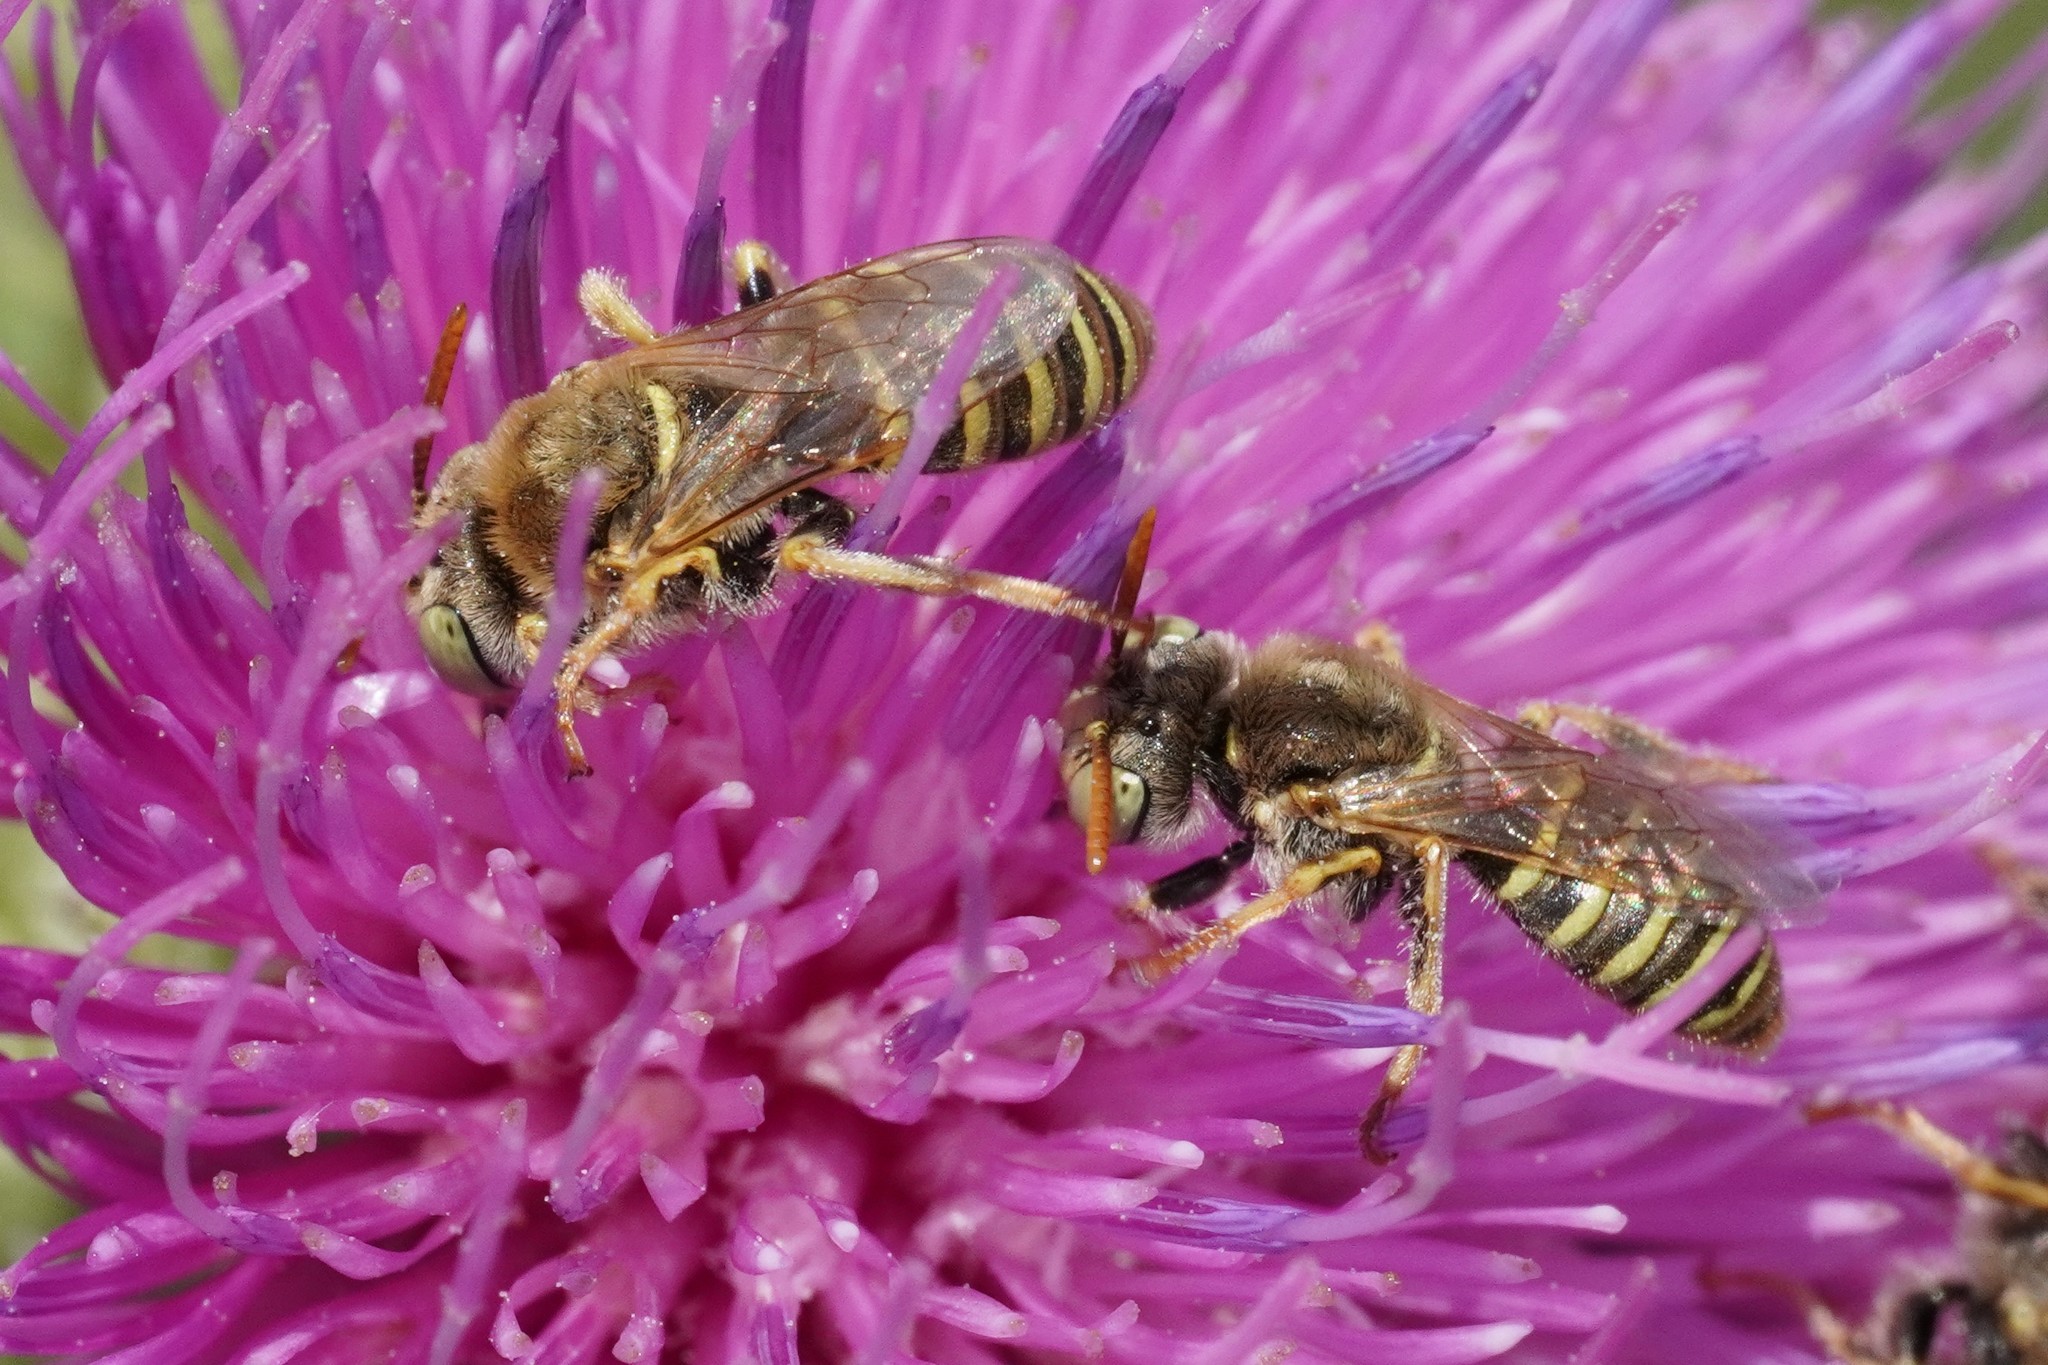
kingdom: Animalia
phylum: Arthropoda
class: Insecta
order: Hymenoptera
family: Andrenidae
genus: Camptopoeum
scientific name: Camptopoeum friesei
